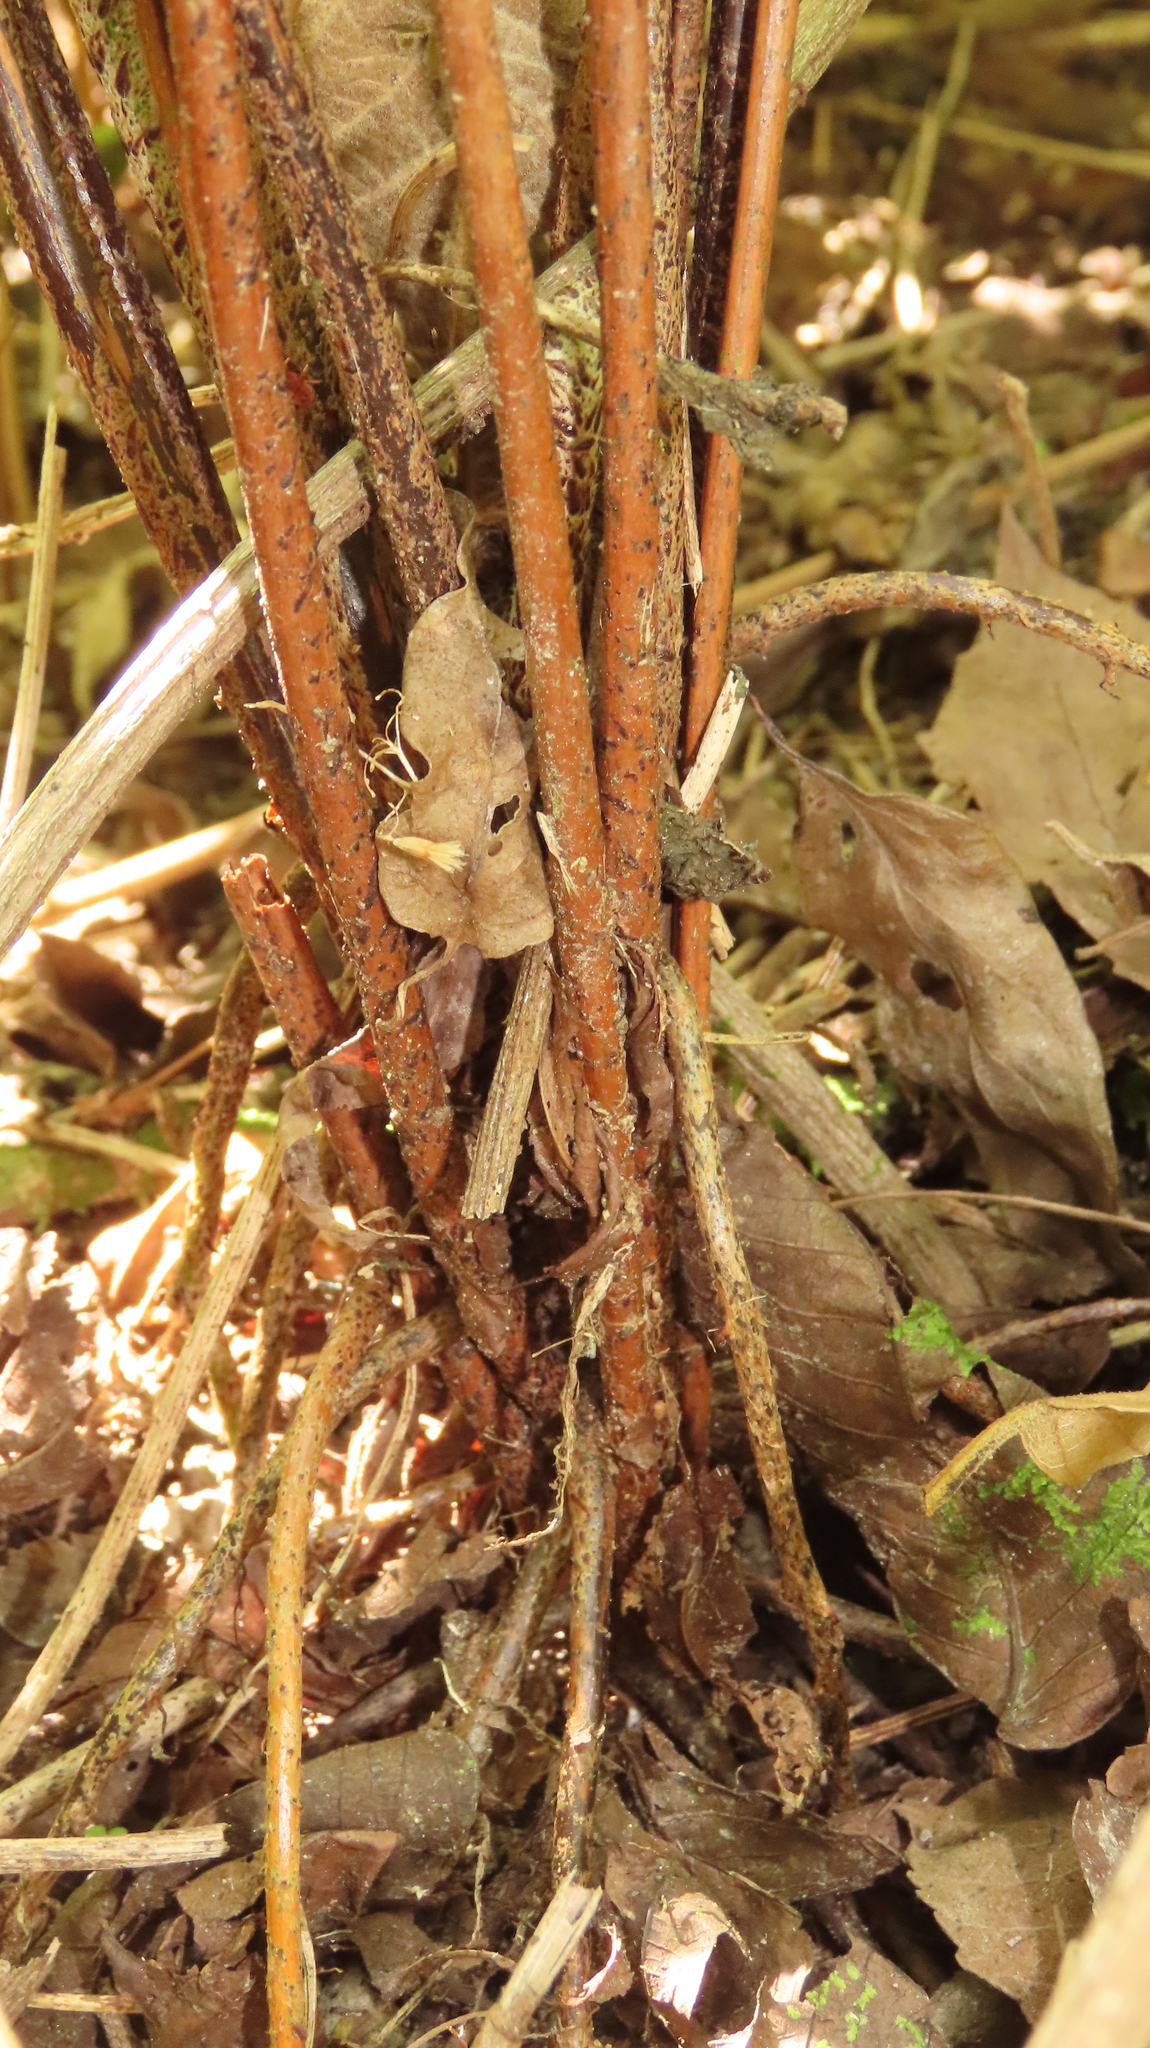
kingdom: Plantae
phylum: Tracheophyta
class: Polypodiopsida
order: Polypodiales
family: Nephrolepidaceae
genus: Nephrolepis
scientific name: Nephrolepis brownii
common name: Asian swordfern
